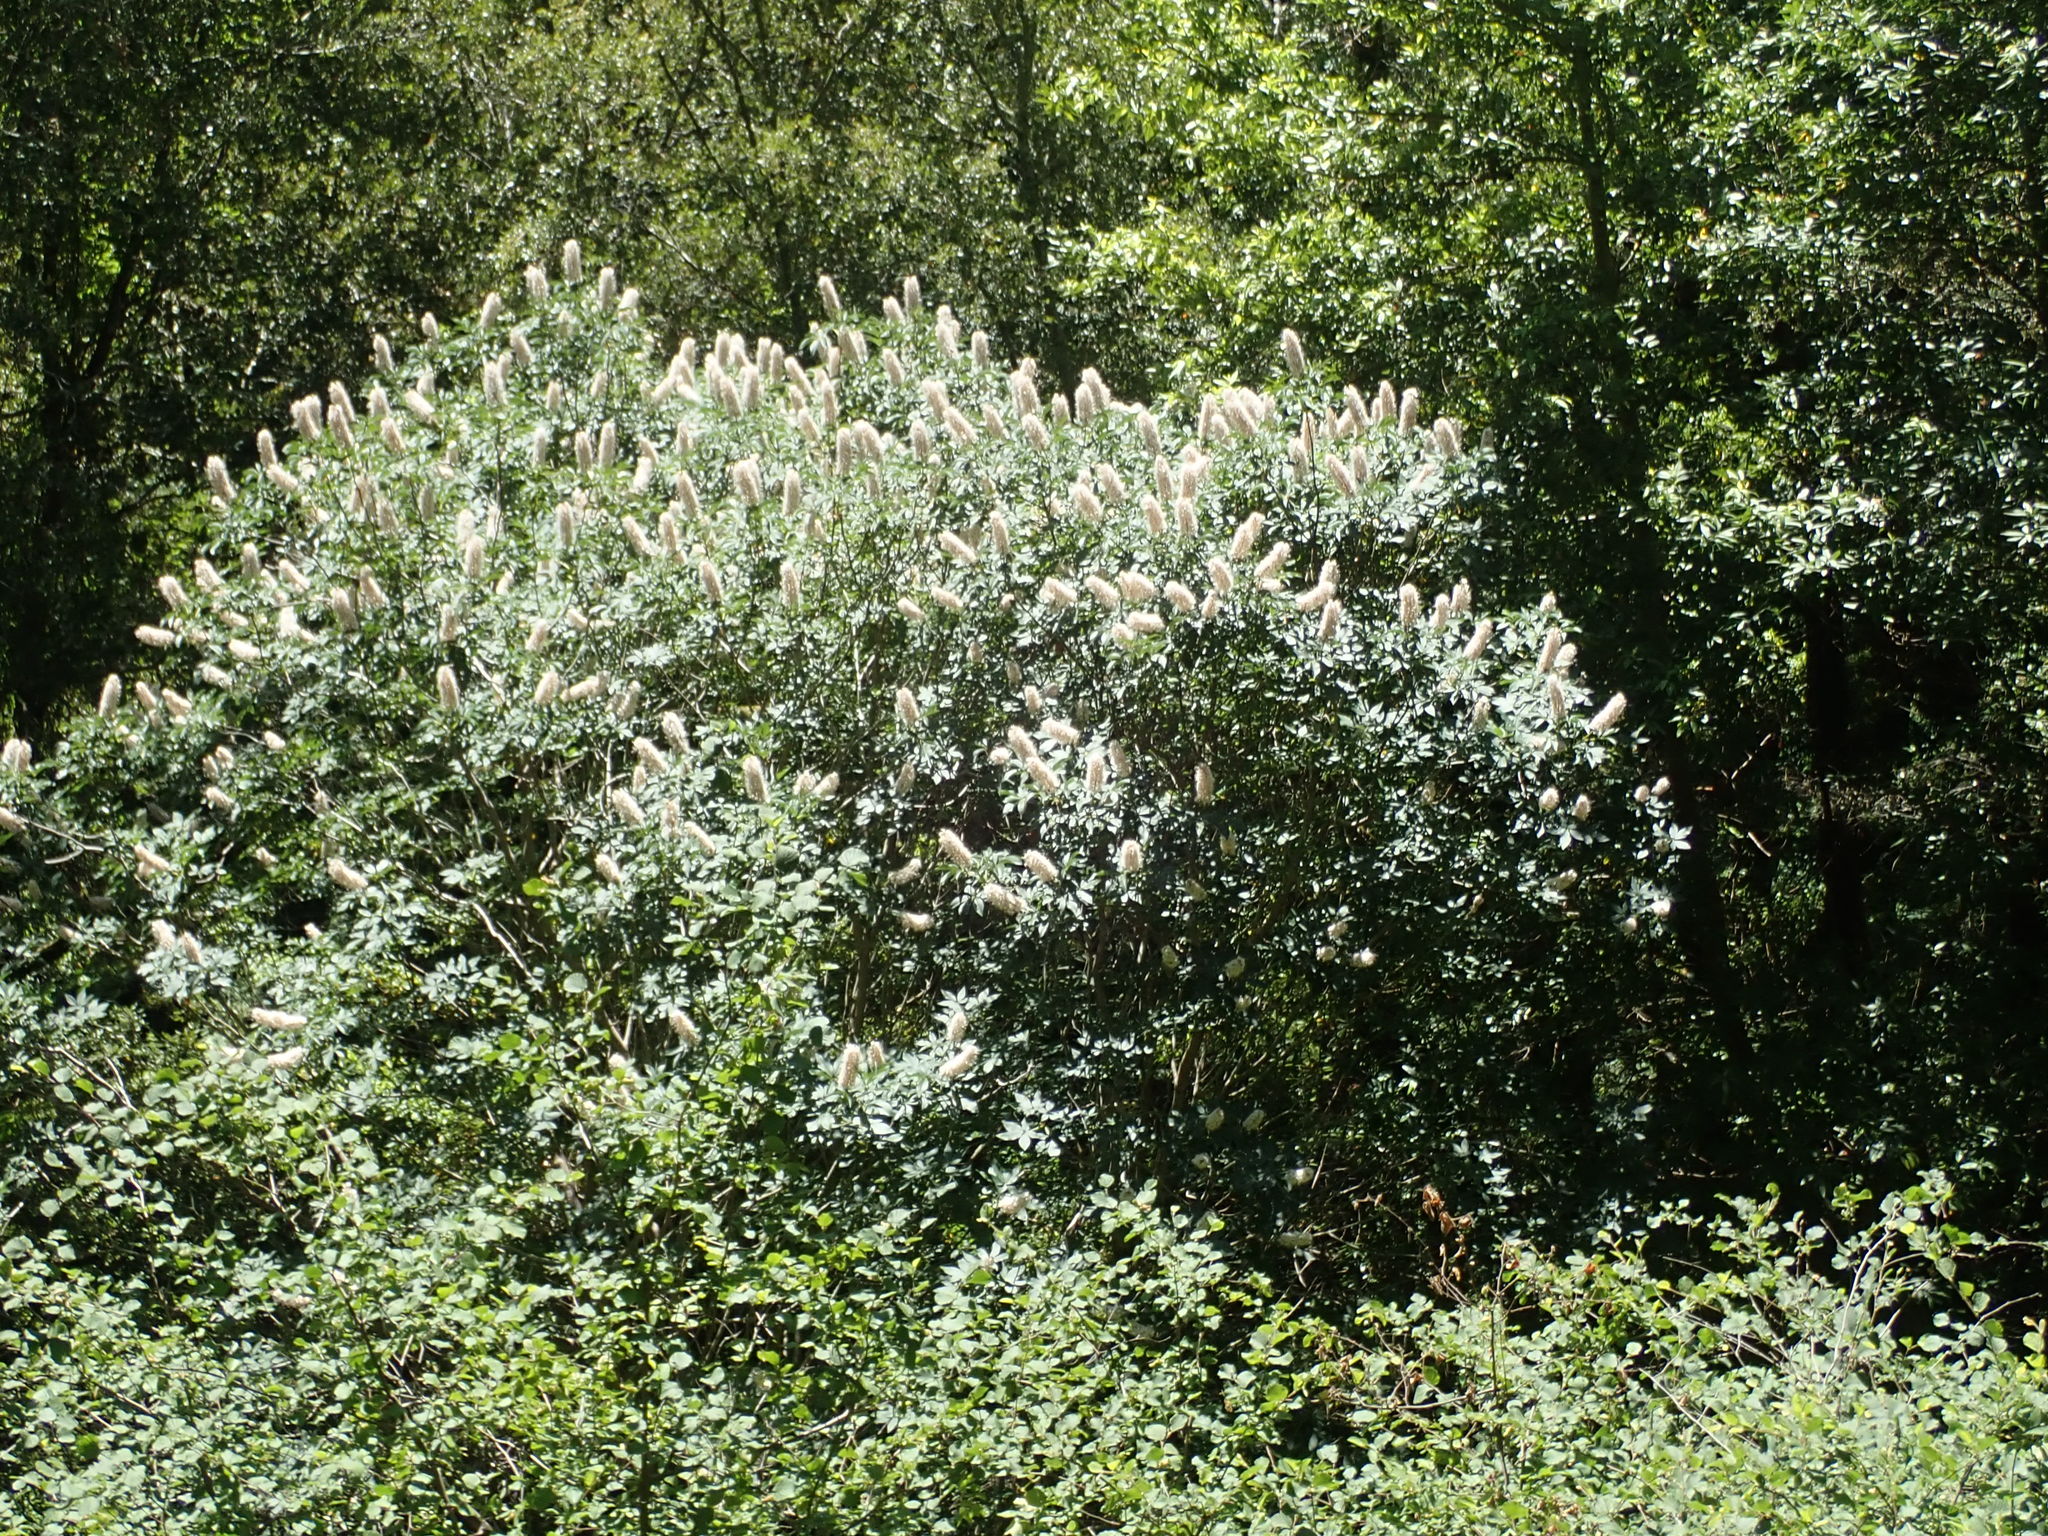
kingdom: Plantae
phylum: Tracheophyta
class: Magnoliopsida
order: Sapindales
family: Sapindaceae
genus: Aesculus
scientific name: Aesculus californica
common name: California buckeye
